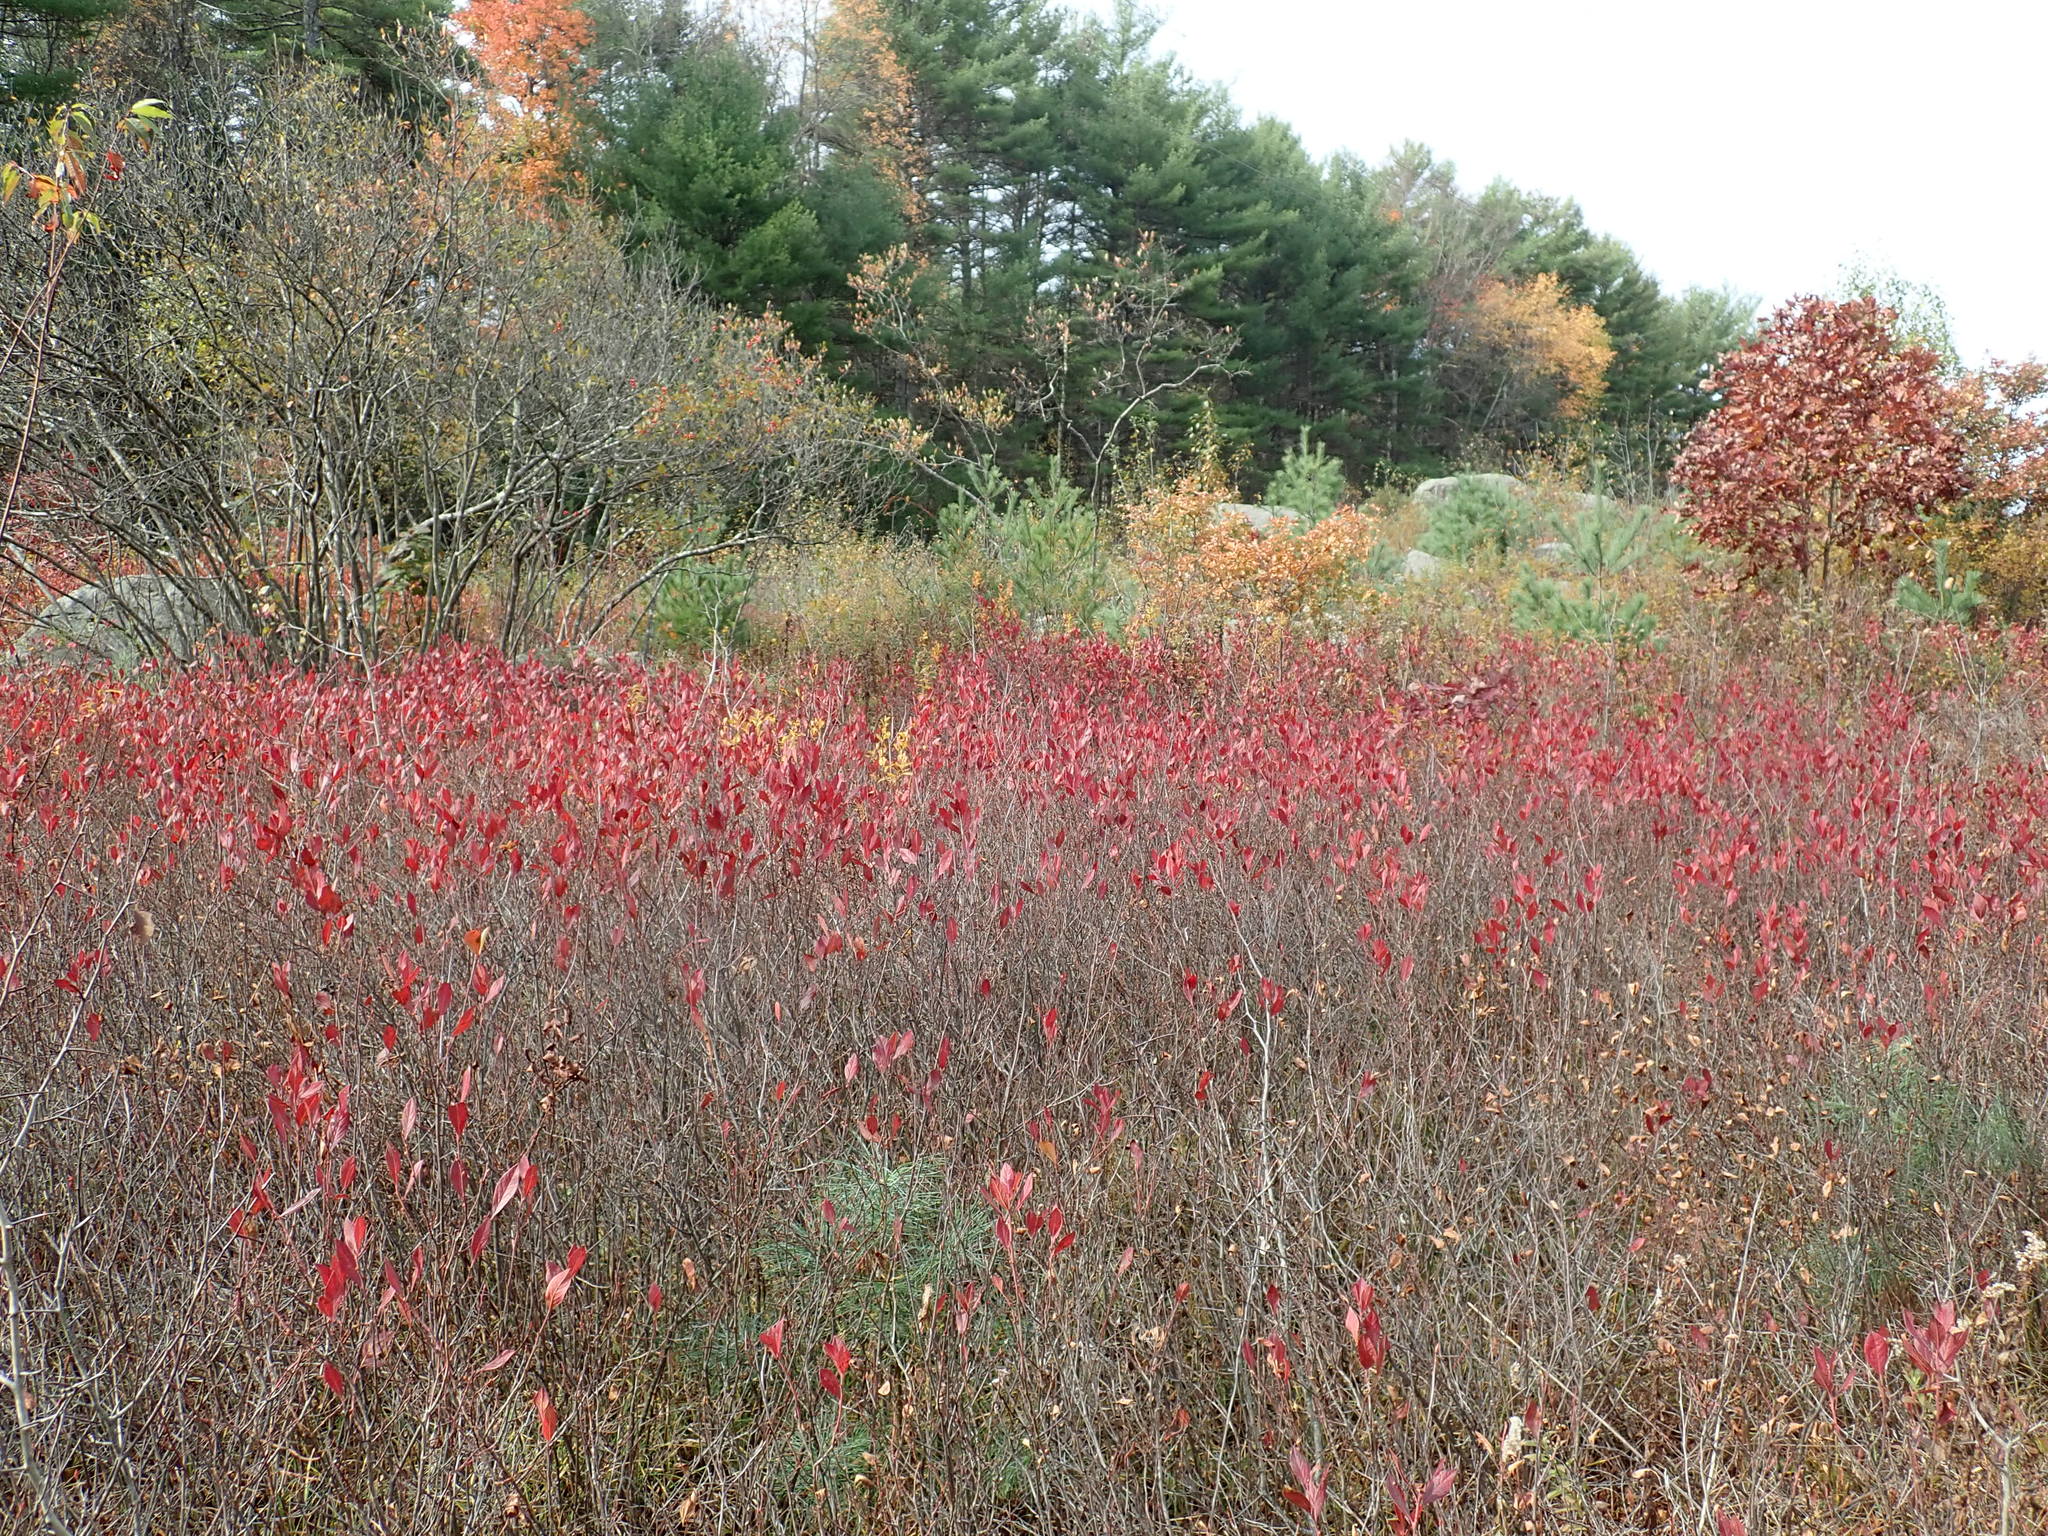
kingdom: Plantae
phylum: Tracheophyta
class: Magnoliopsida
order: Ericales
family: Ericaceae
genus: Gaylussacia
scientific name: Gaylussacia baccata
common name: Black huckleberry
